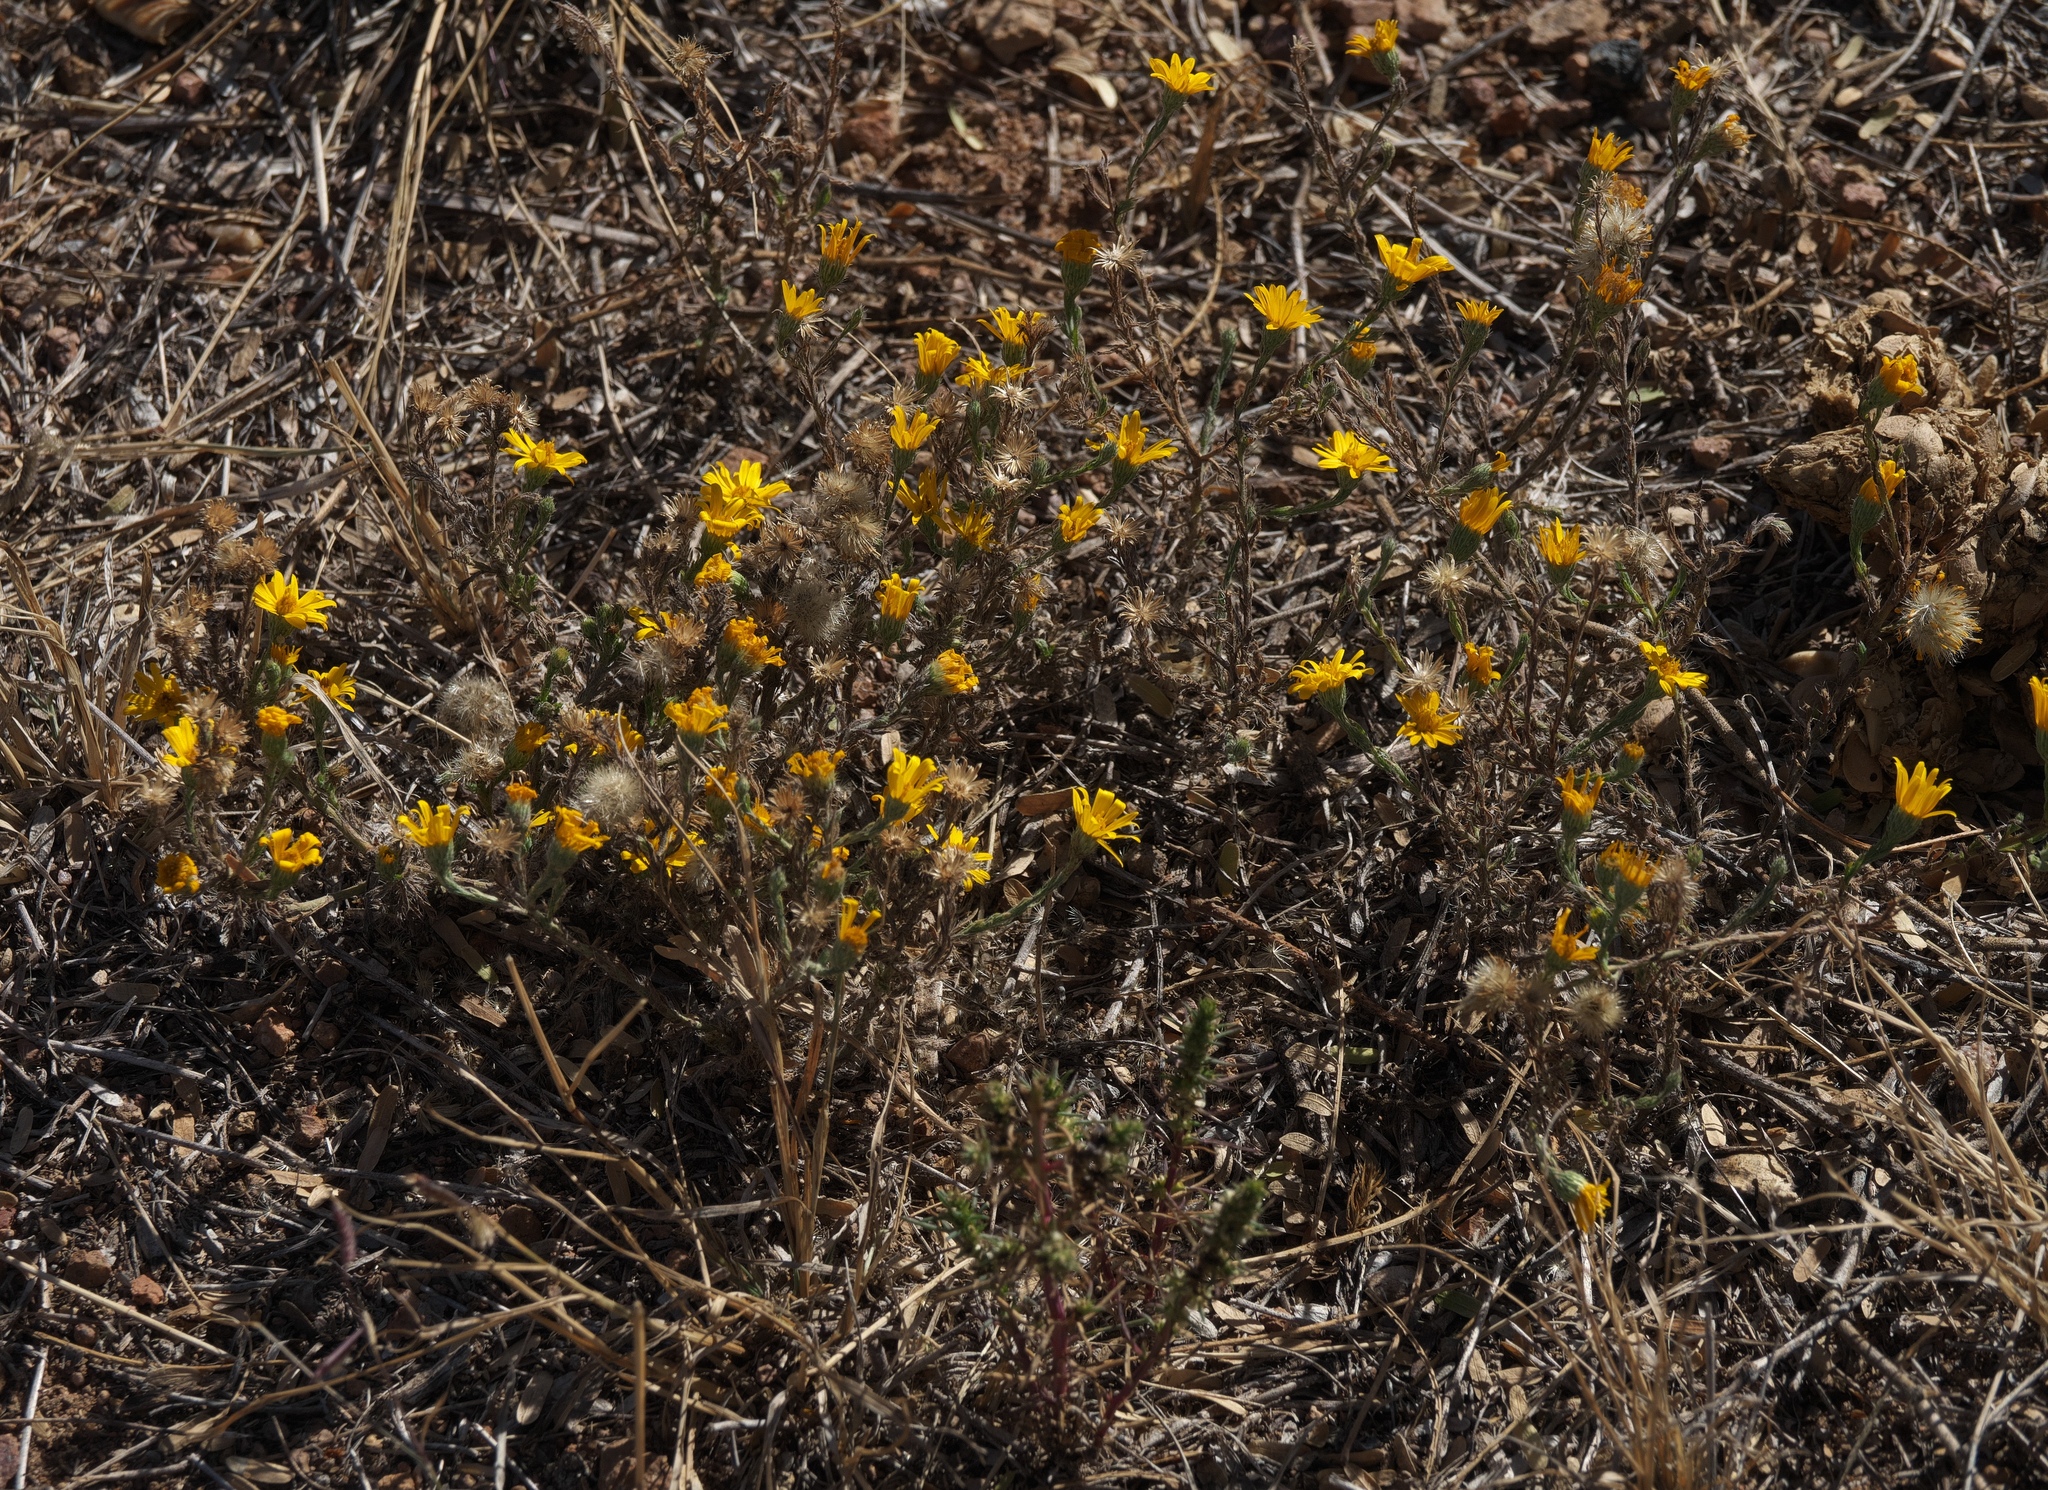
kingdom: Plantae
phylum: Tracheophyta
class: Magnoliopsida
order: Asterales
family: Asteraceae
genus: Xanthisma
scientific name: Xanthisma gracile
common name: Slender goldenweed
